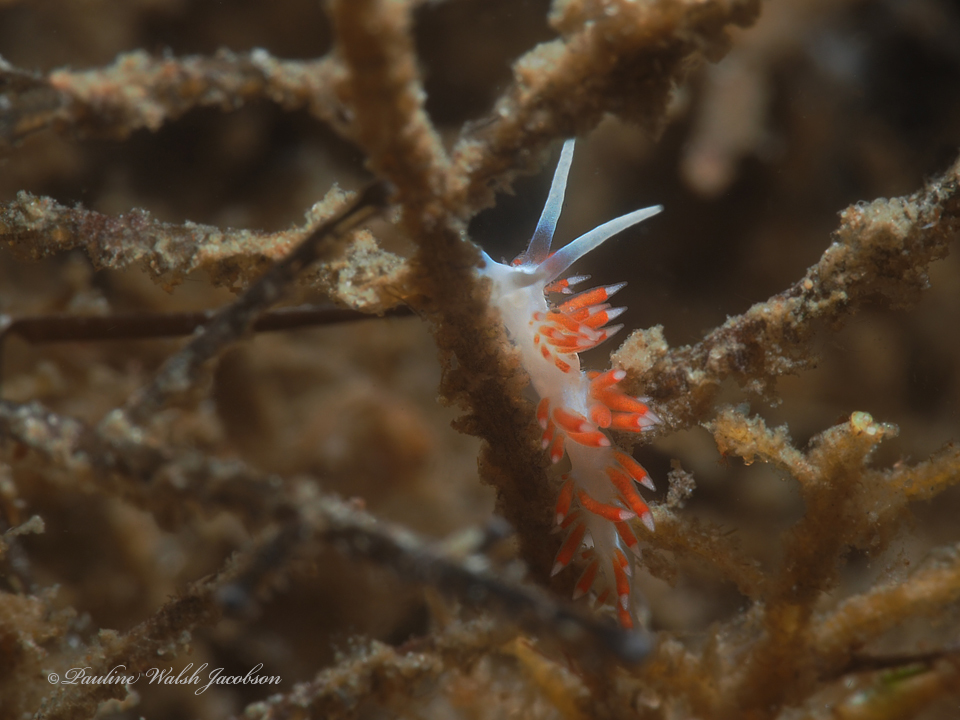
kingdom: Animalia
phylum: Mollusca
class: Gastropoda
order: Nudibranchia
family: Flabellinidae
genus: Flabellina
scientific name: Flabellina dushia
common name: Dushia flabellina
